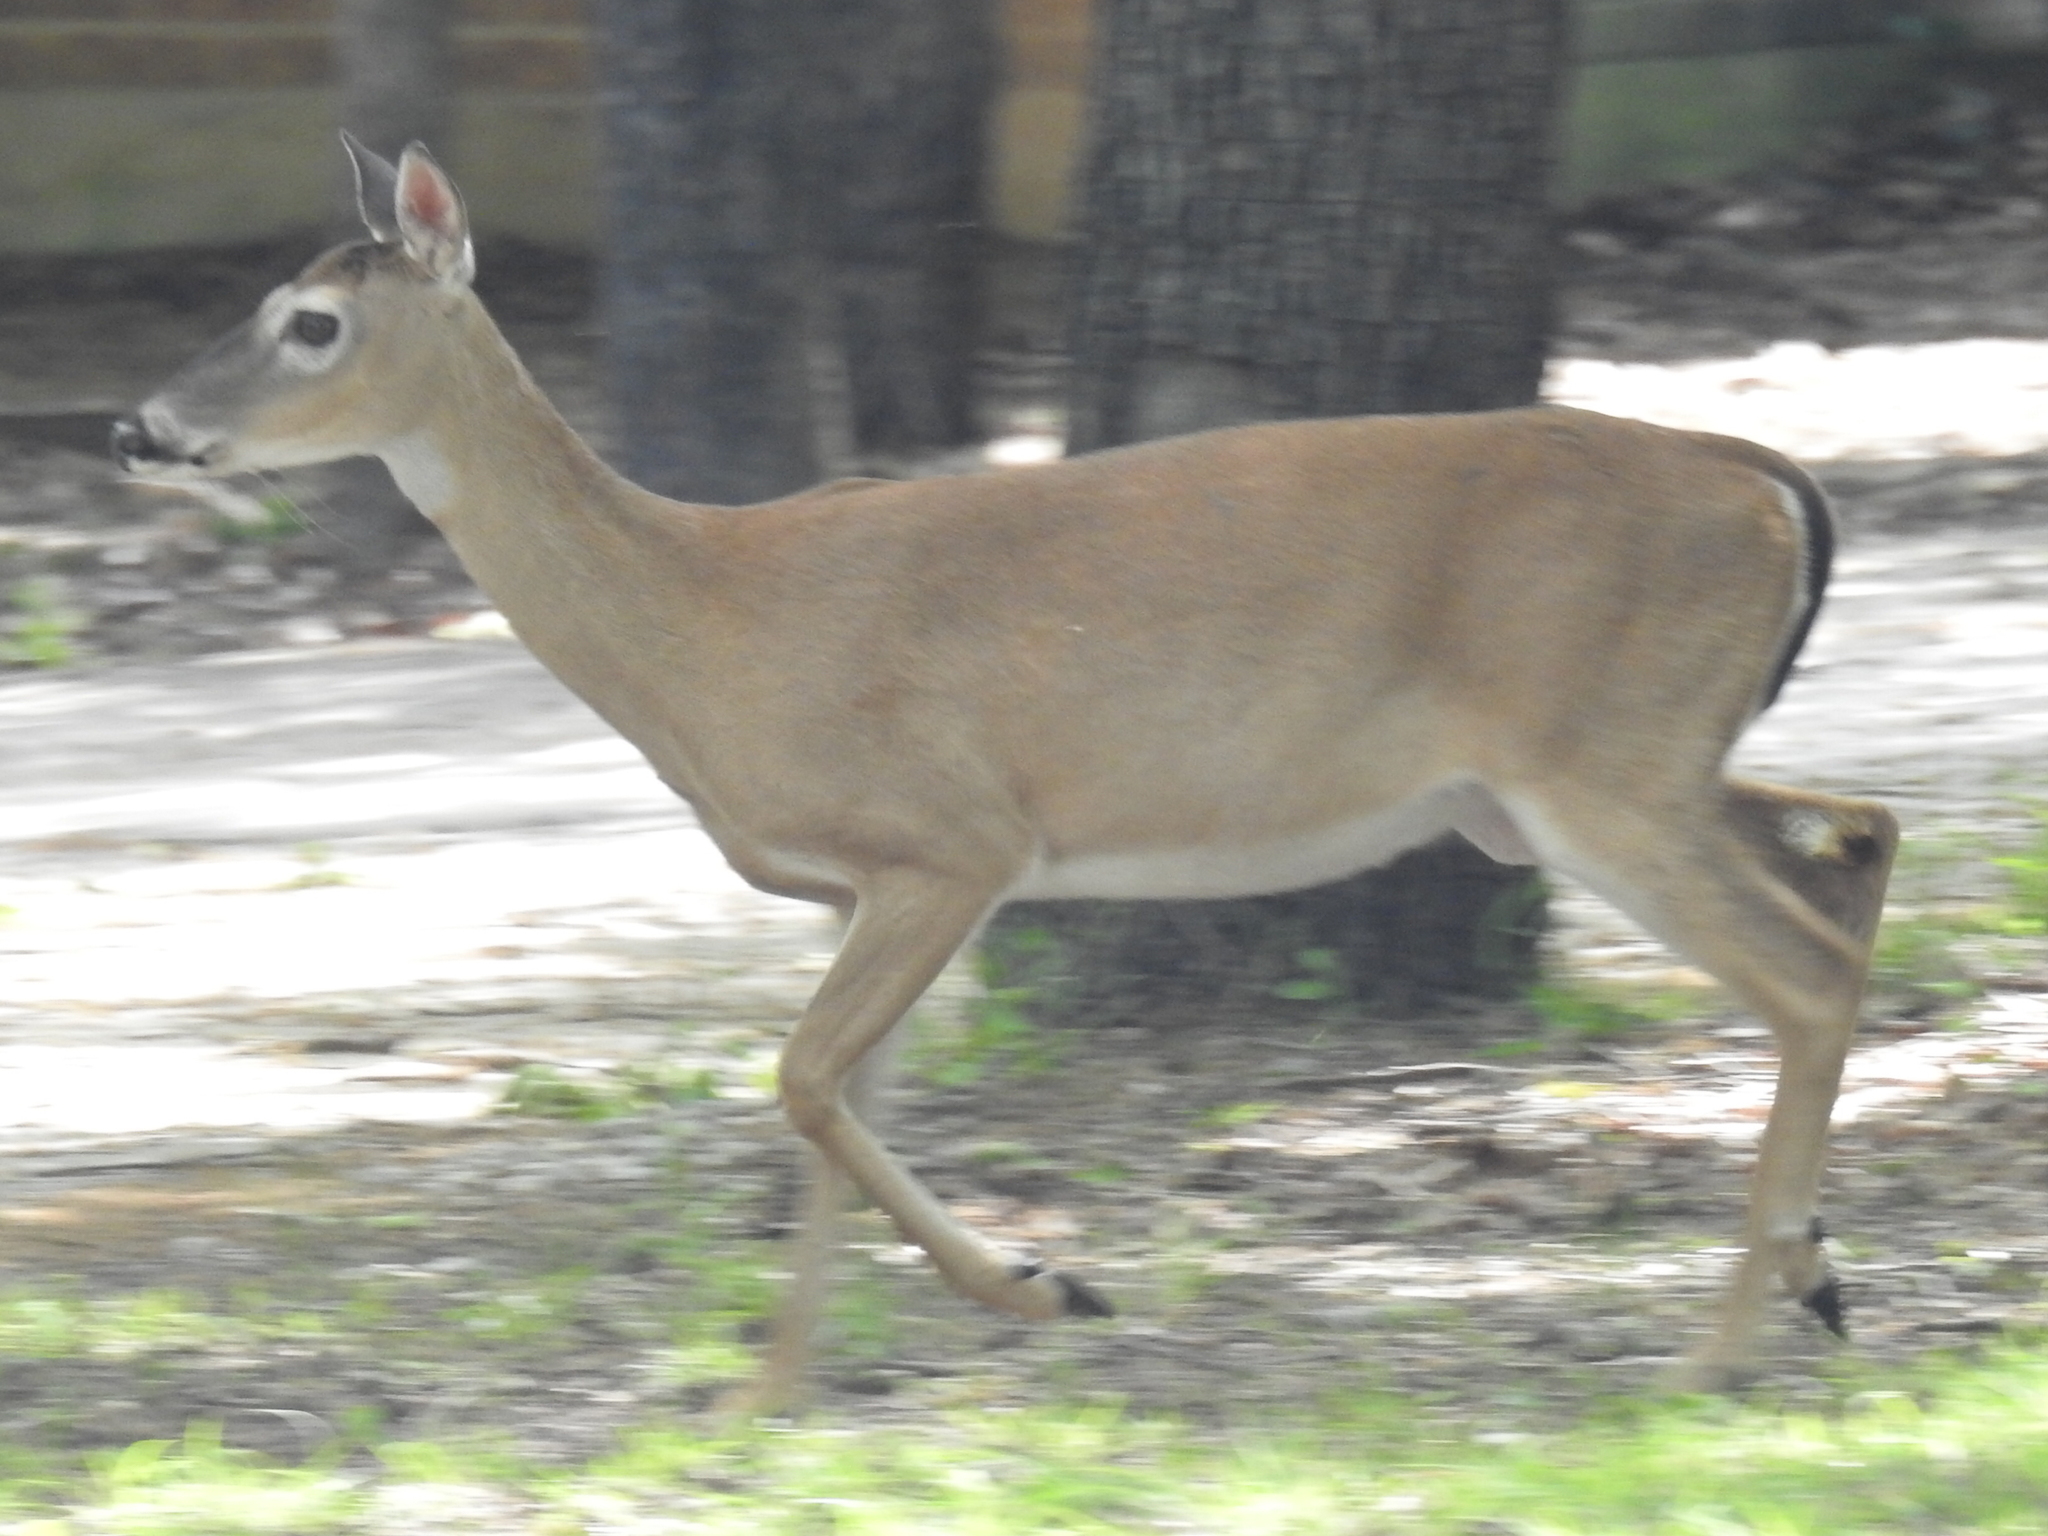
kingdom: Animalia
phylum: Chordata
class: Mammalia
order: Artiodactyla
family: Cervidae
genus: Odocoileus
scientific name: Odocoileus virginianus
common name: White-tailed deer
